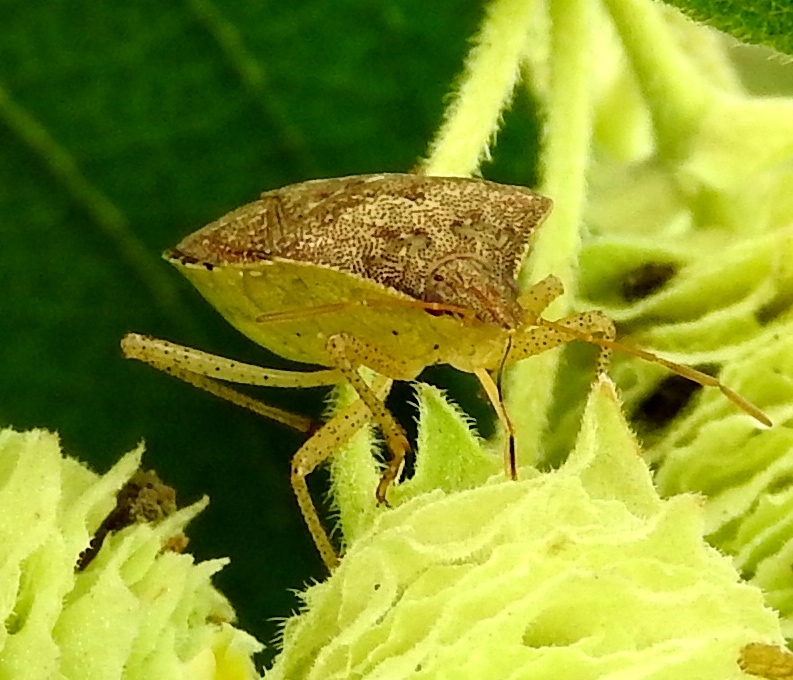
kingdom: Animalia
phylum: Arthropoda
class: Insecta
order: Hemiptera
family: Pentatomidae
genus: Euschistus
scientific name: Euschistus
